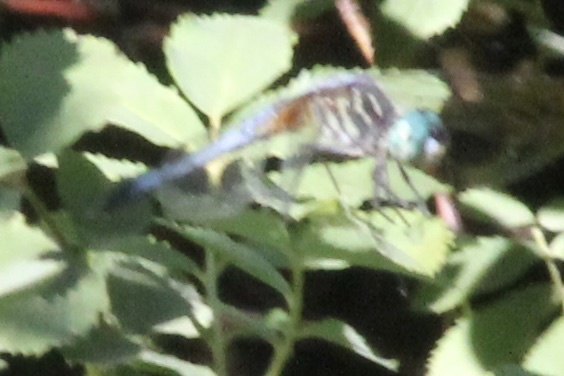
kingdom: Animalia
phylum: Arthropoda
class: Insecta
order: Odonata
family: Libellulidae
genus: Pachydiplax
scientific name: Pachydiplax longipennis
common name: Blue dasher
